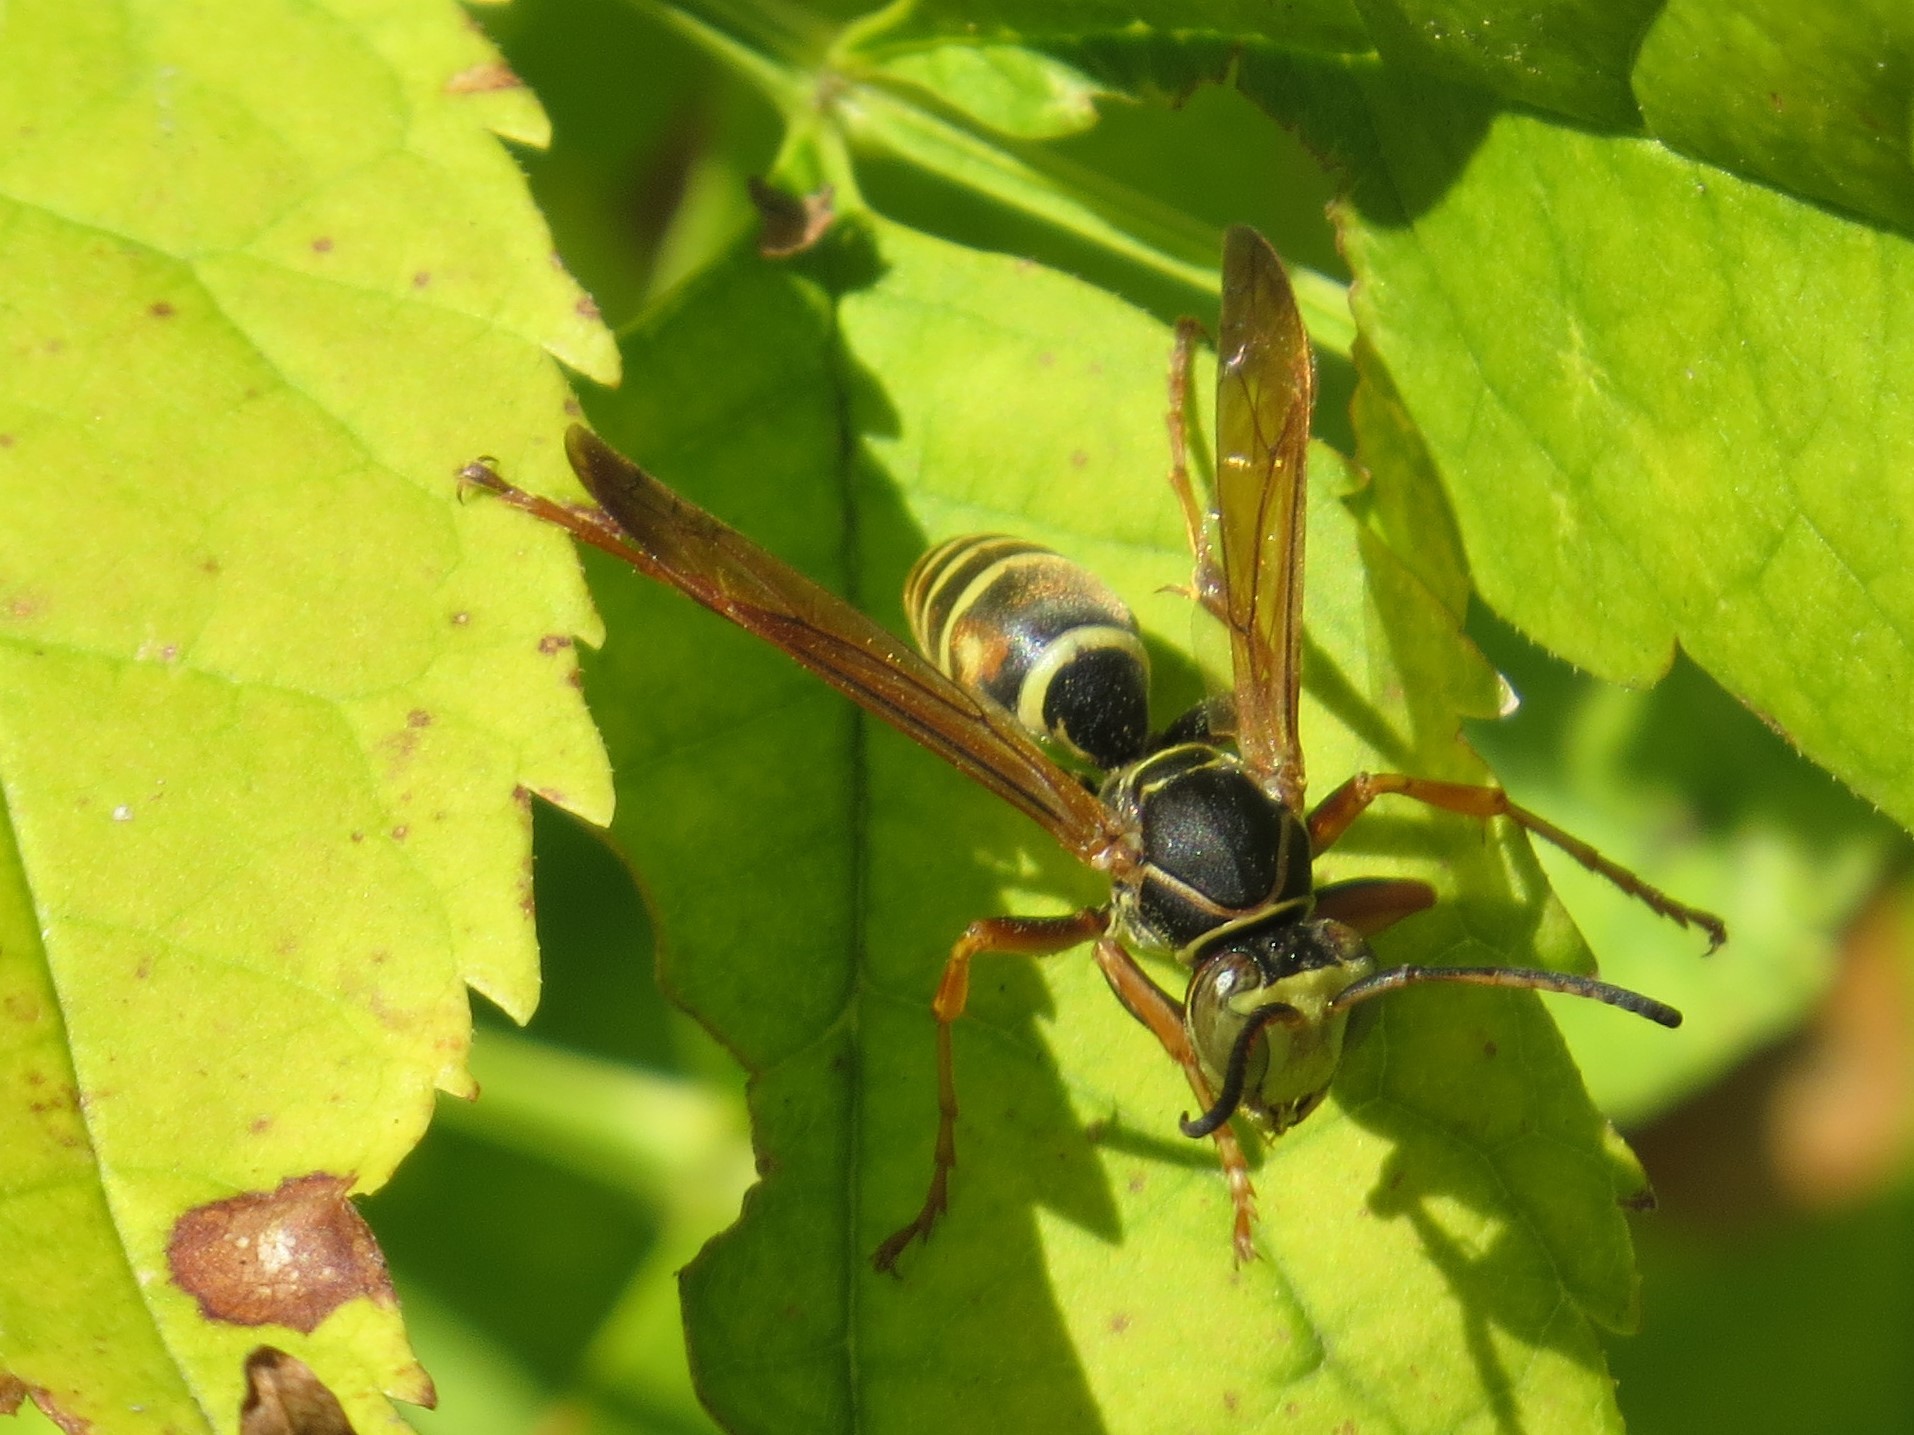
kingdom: Animalia
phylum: Arthropoda
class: Insecta
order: Hymenoptera
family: Eumenidae
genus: Polistes
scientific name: Polistes fuscatus
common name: Dark paper wasp
